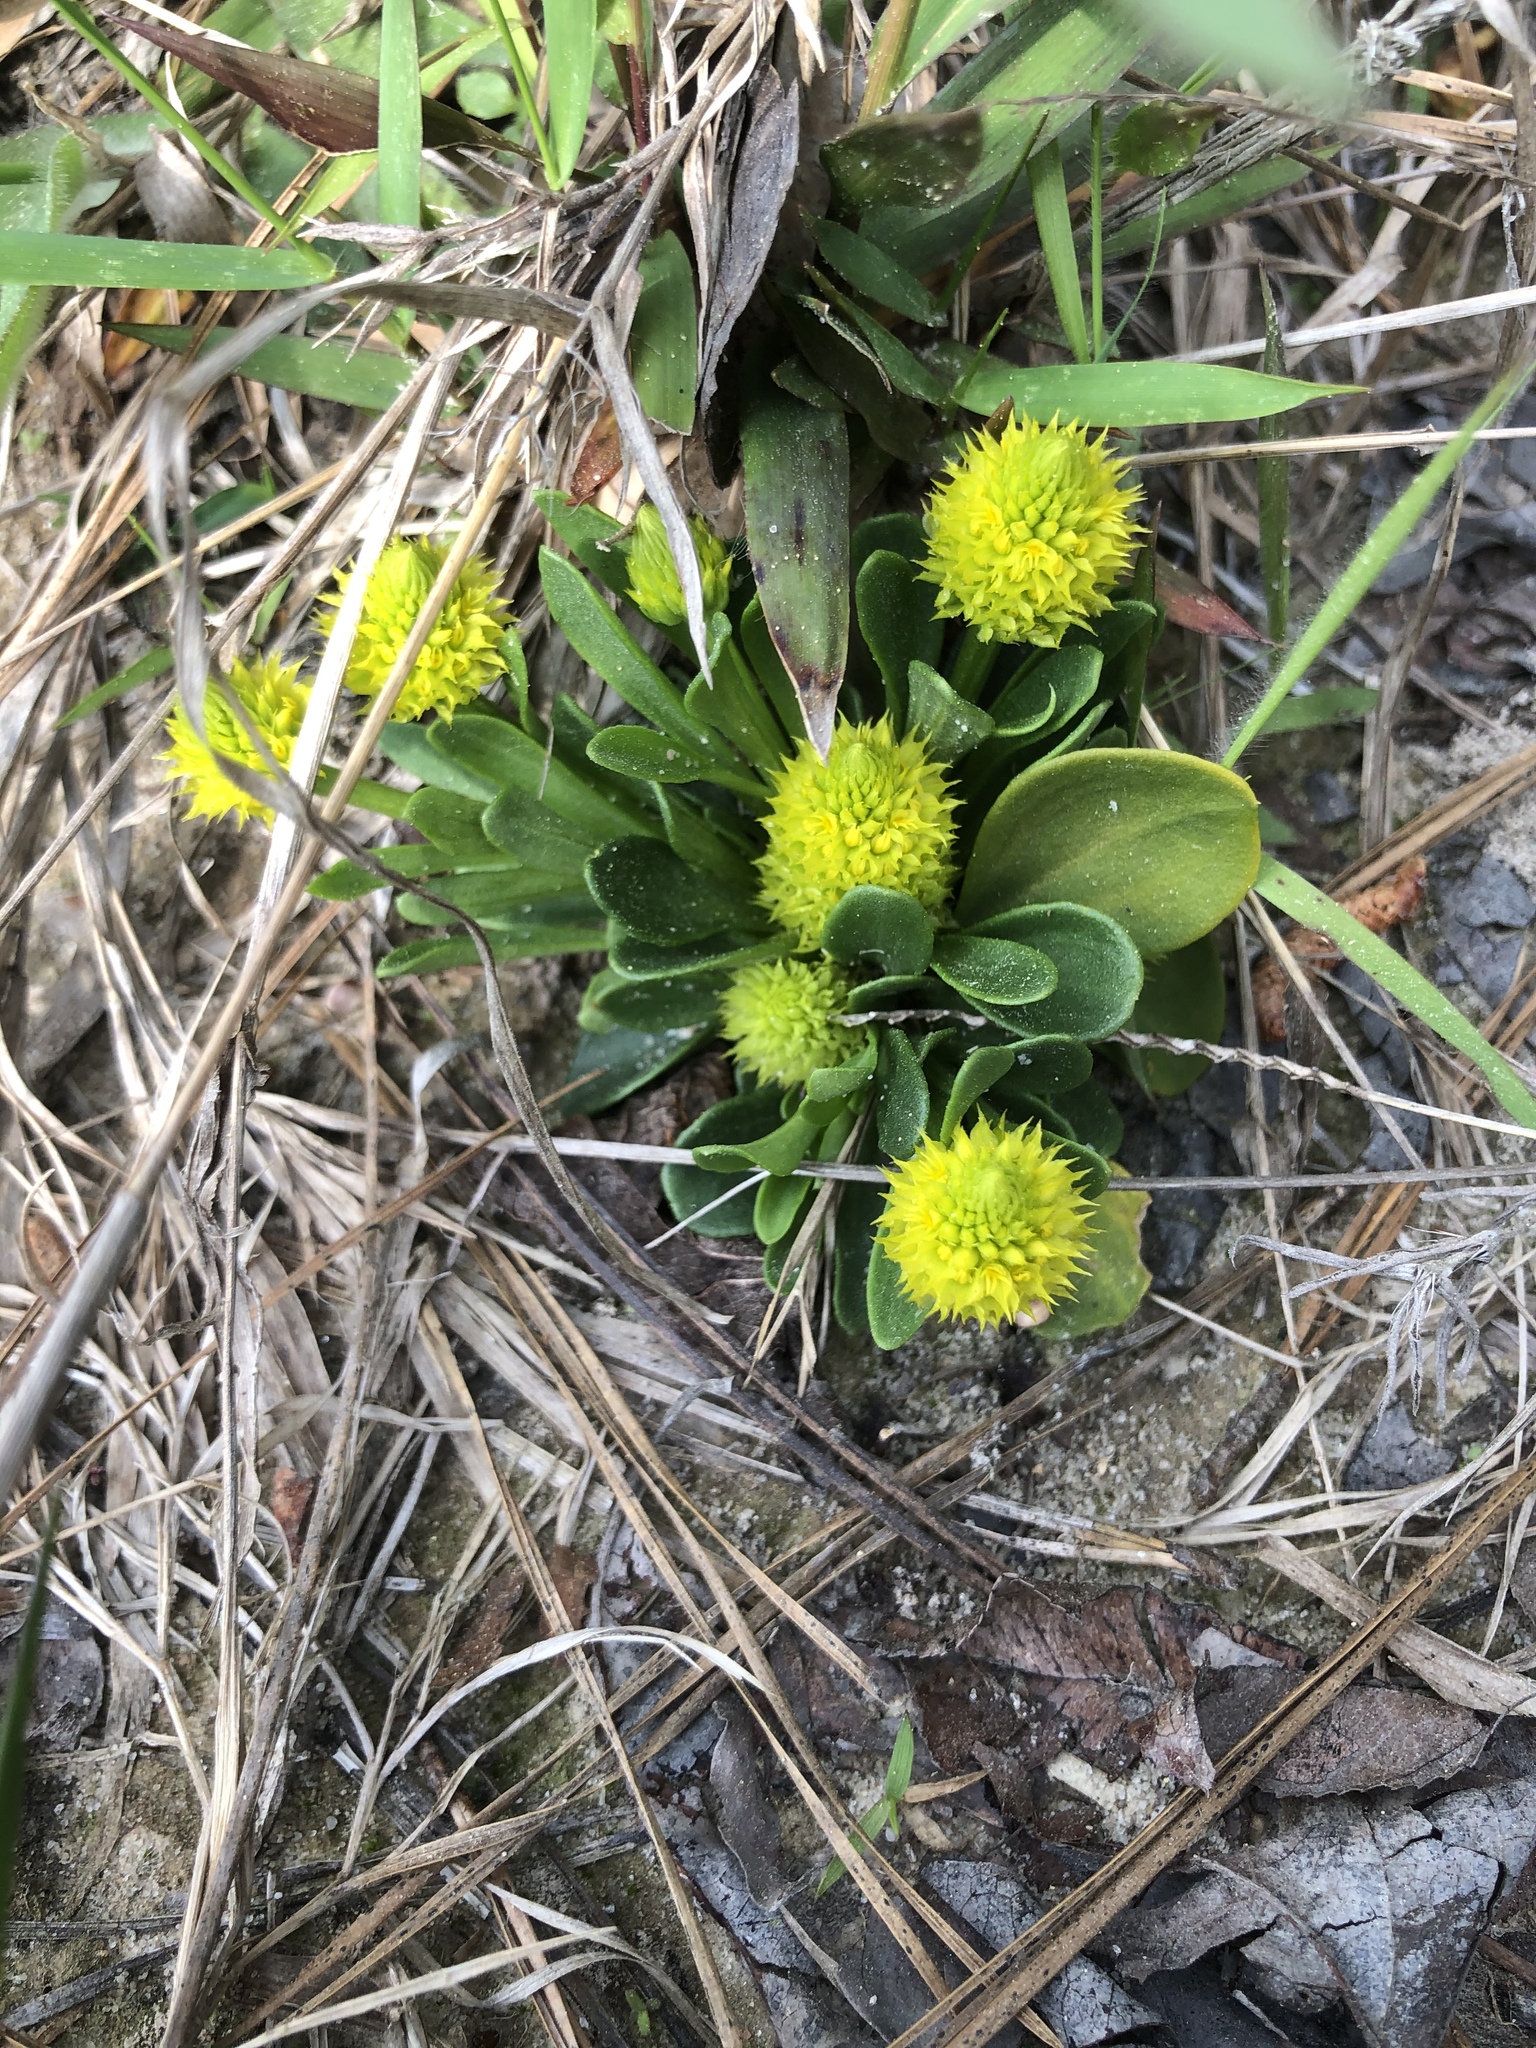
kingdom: Plantae
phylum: Tracheophyta
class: Magnoliopsida
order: Fabales
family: Polygalaceae
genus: Polygala
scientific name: Polygala nana
